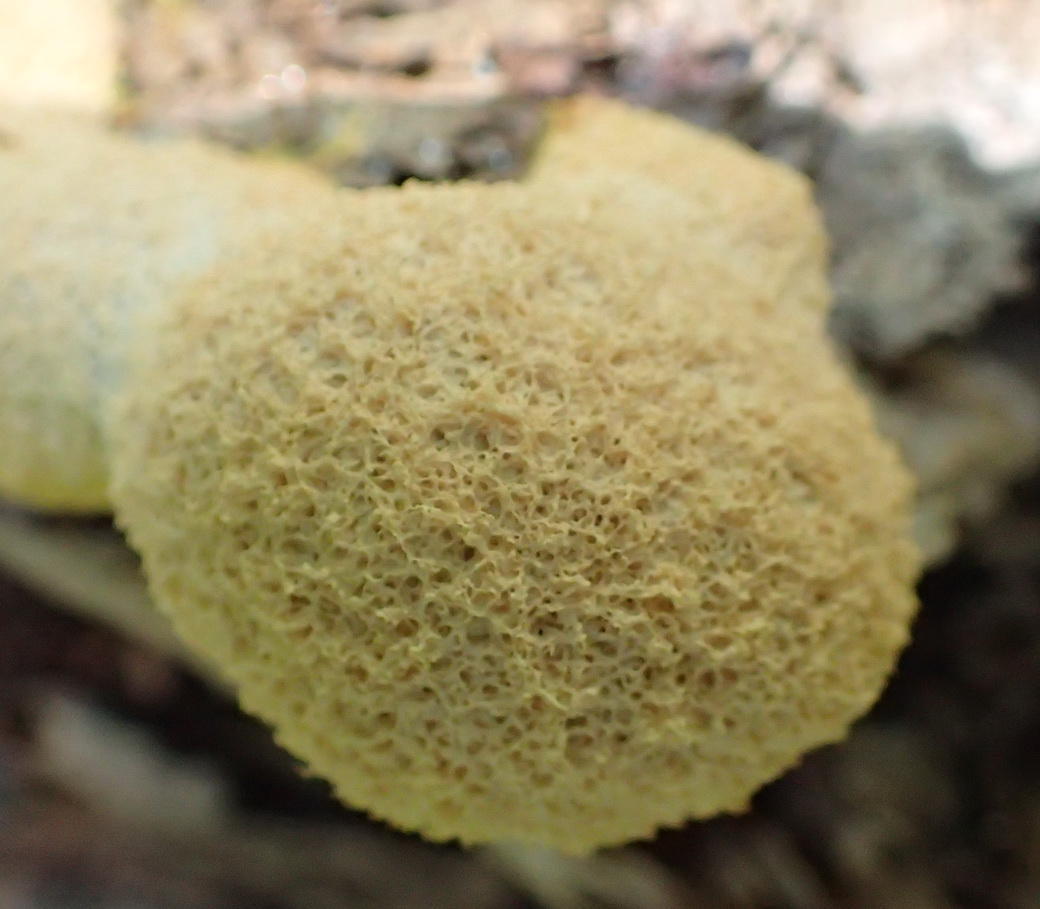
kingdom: Protozoa
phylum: Mycetozoa
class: Myxomycetes
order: Physarales
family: Physaraceae
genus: Fuligo
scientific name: Fuligo septica
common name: Dog vomit slime mold
